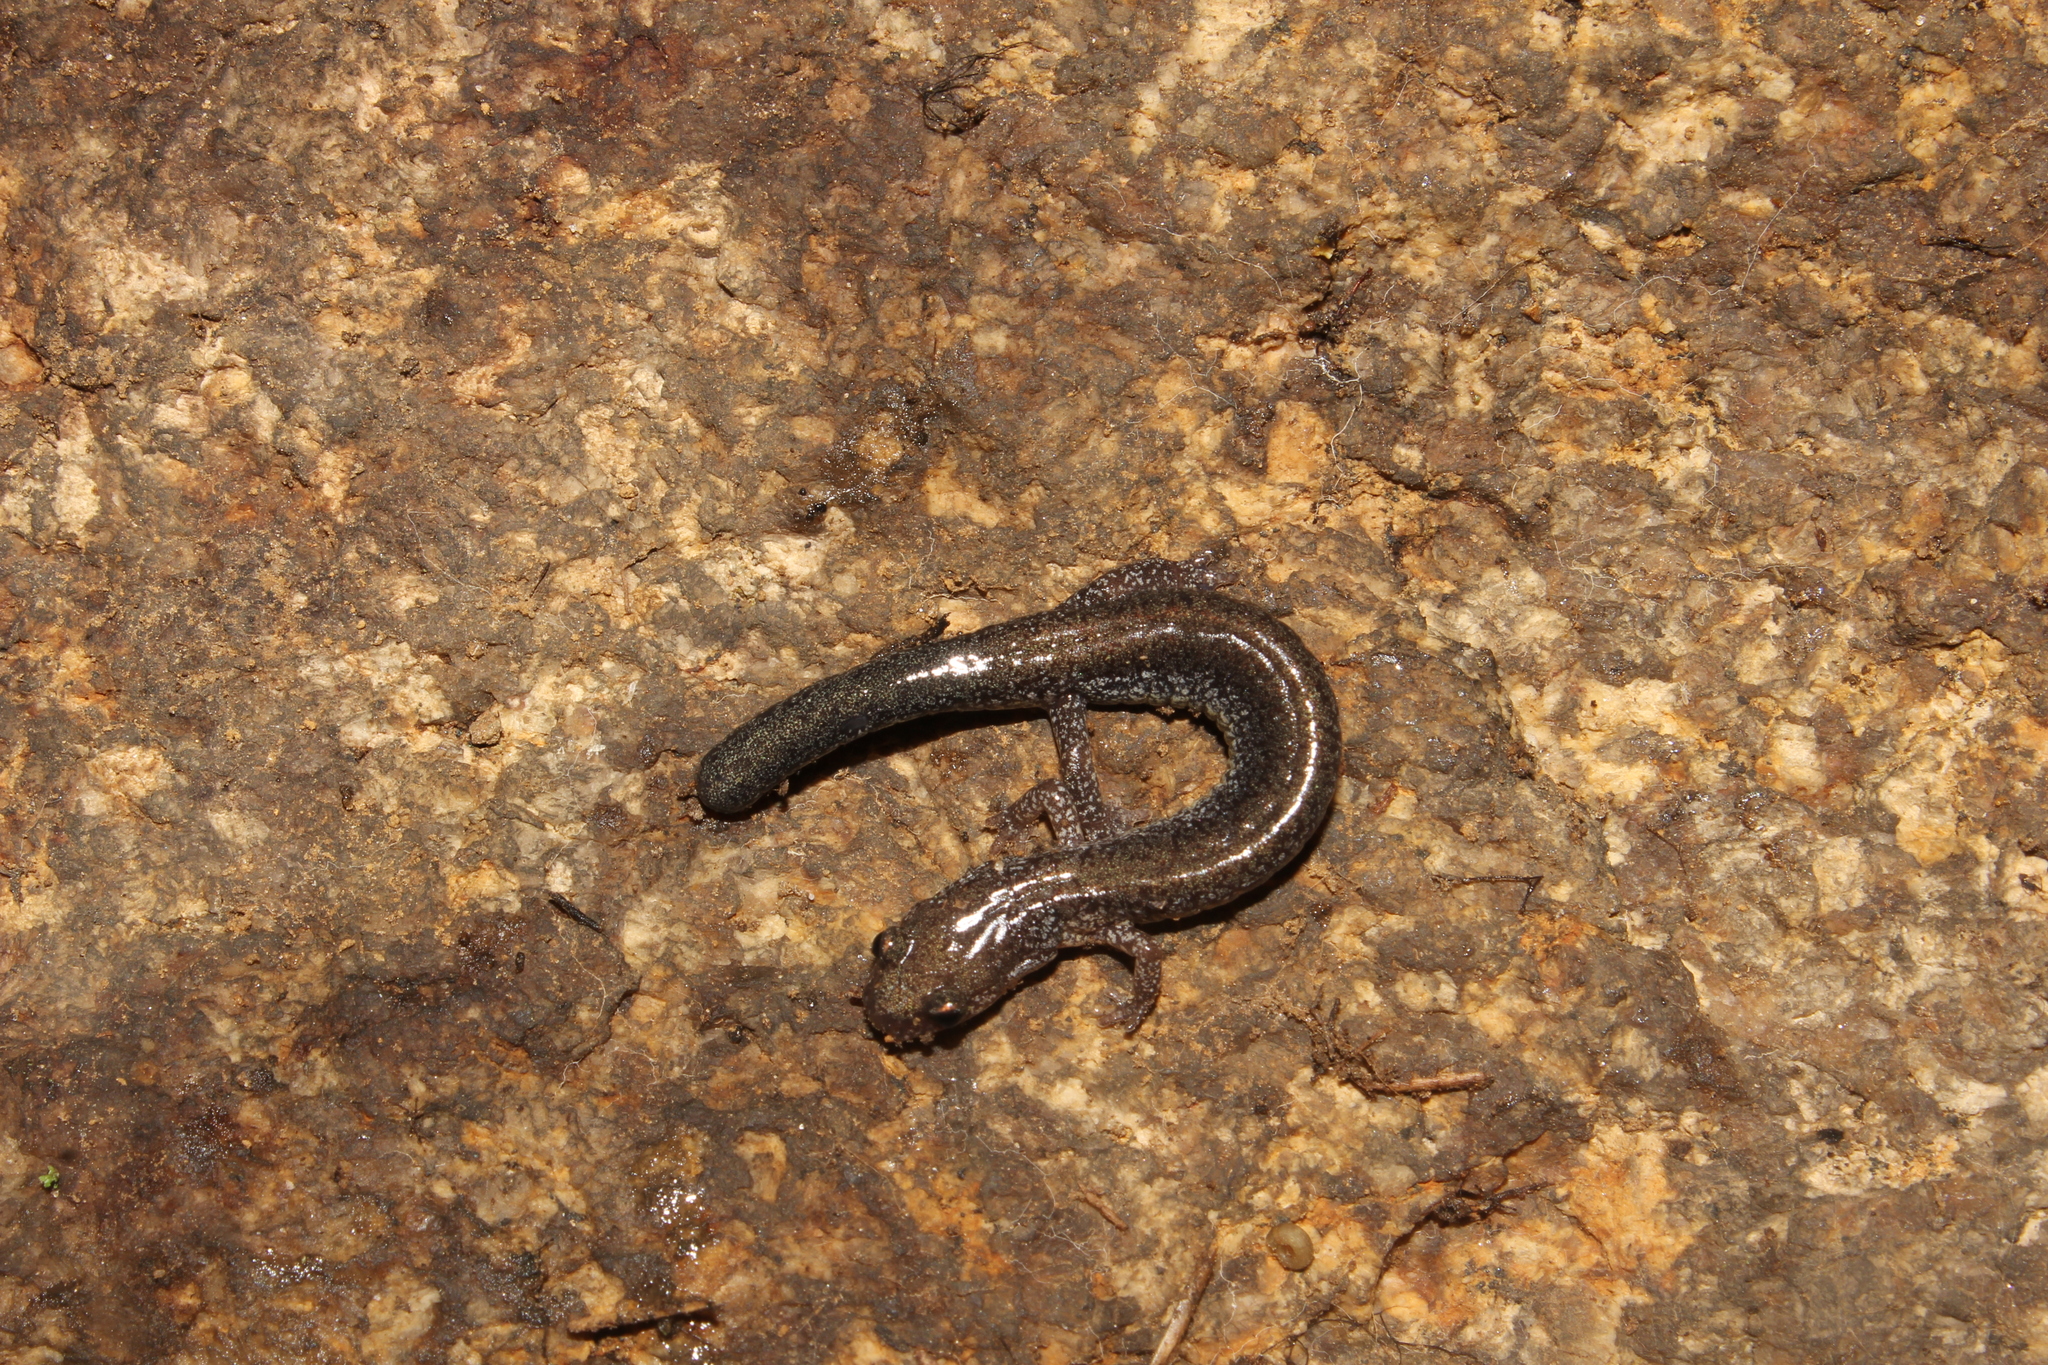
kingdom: Animalia
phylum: Chordata
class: Amphibia
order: Caudata
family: Plethodontidae
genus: Plethodon
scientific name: Plethodon cinereus
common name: Redback salamander
